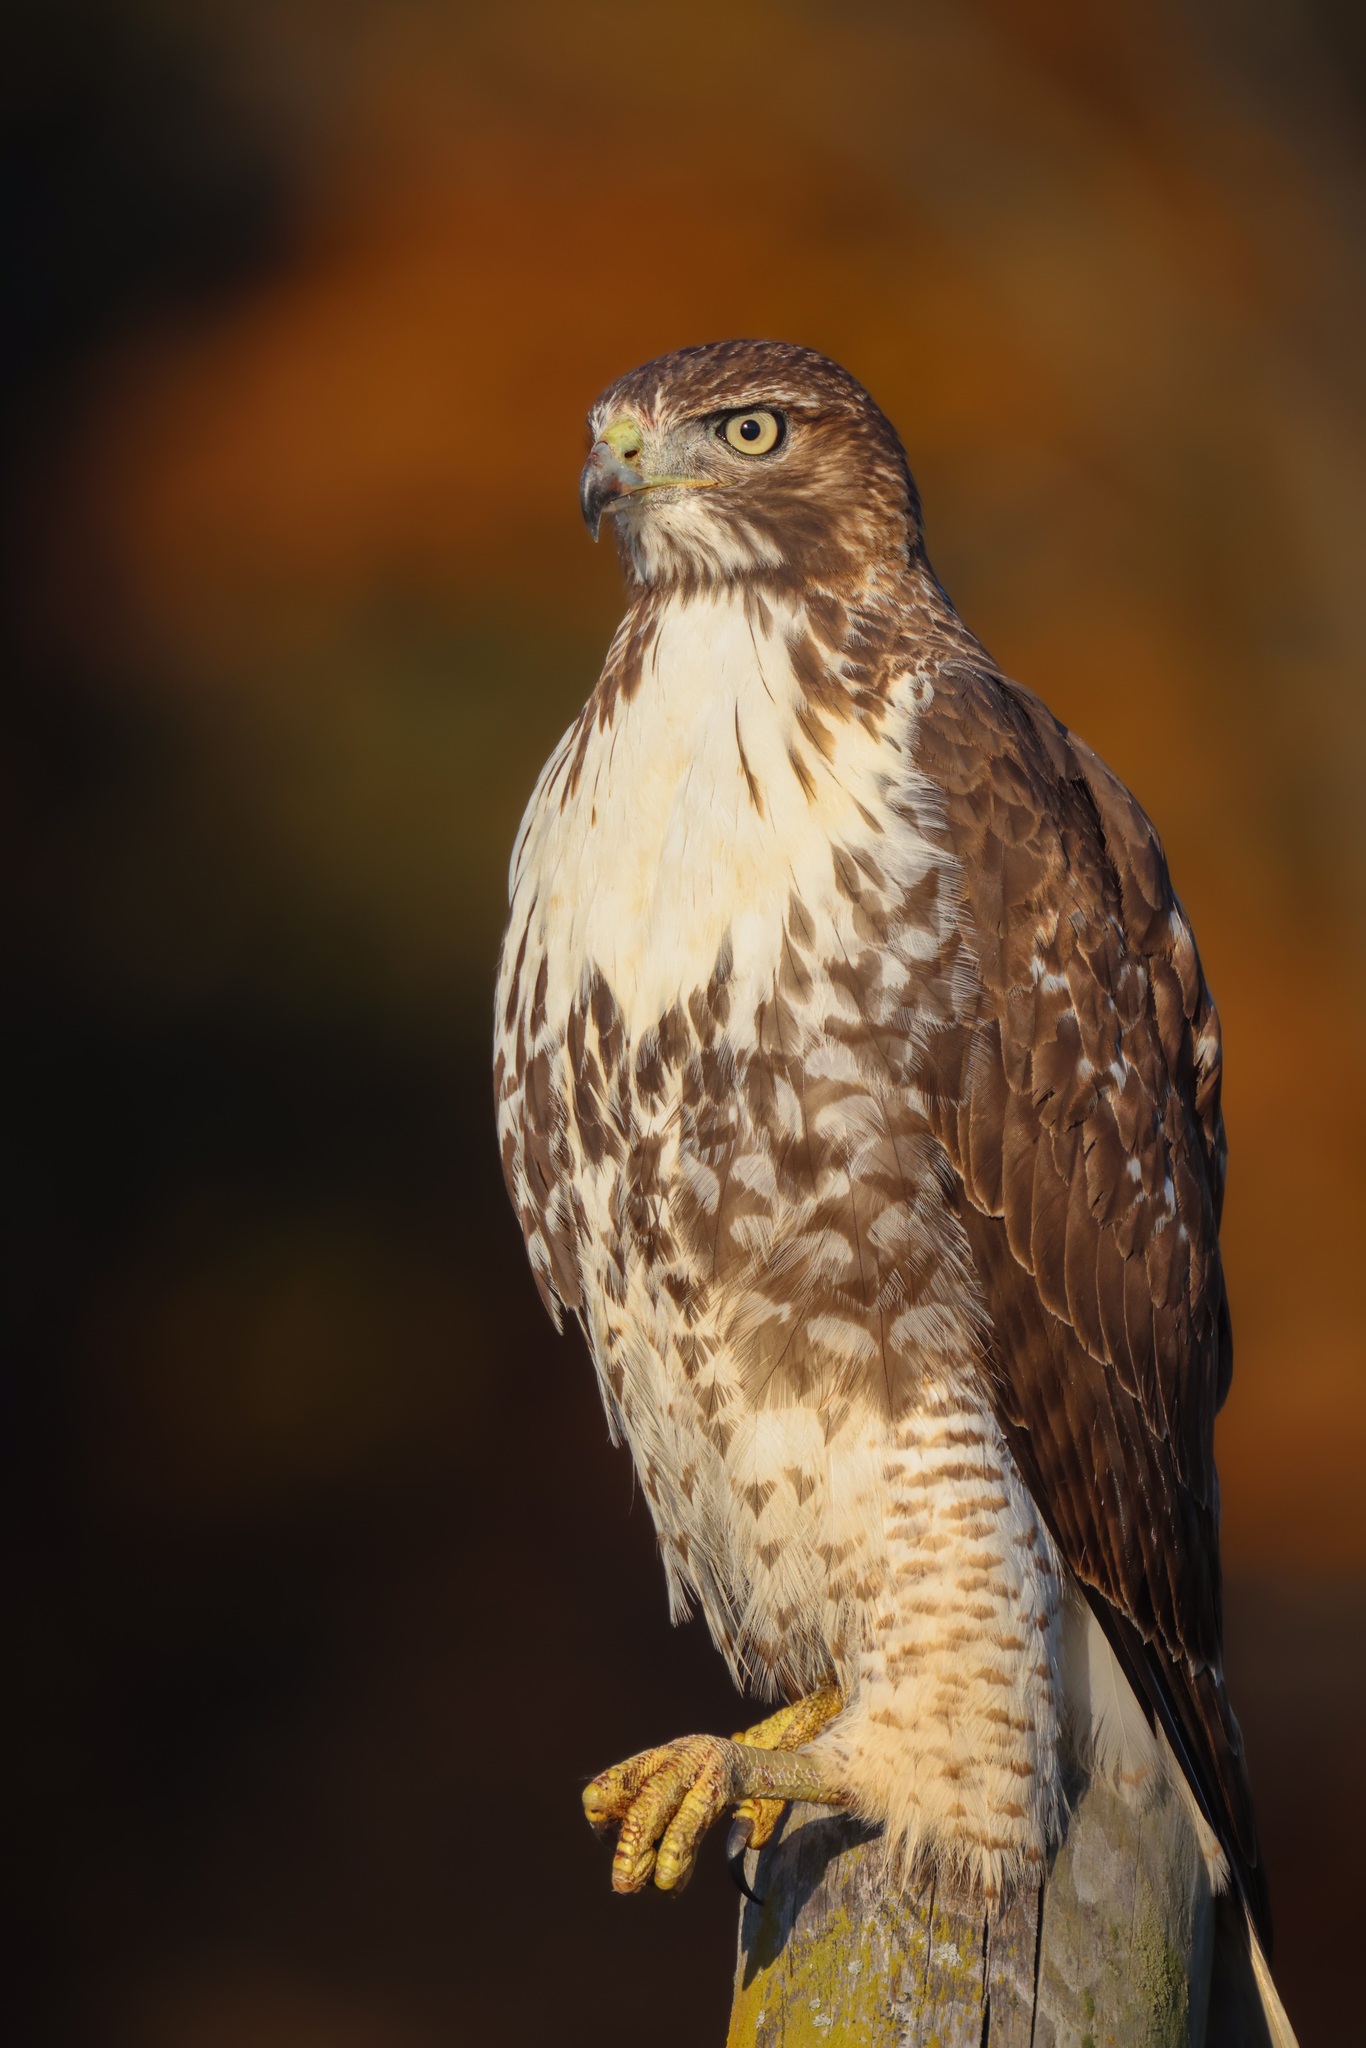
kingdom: Animalia
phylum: Chordata
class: Aves
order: Accipitriformes
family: Accipitridae
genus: Buteo
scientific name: Buteo jamaicensis
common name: Red-tailed hawk
